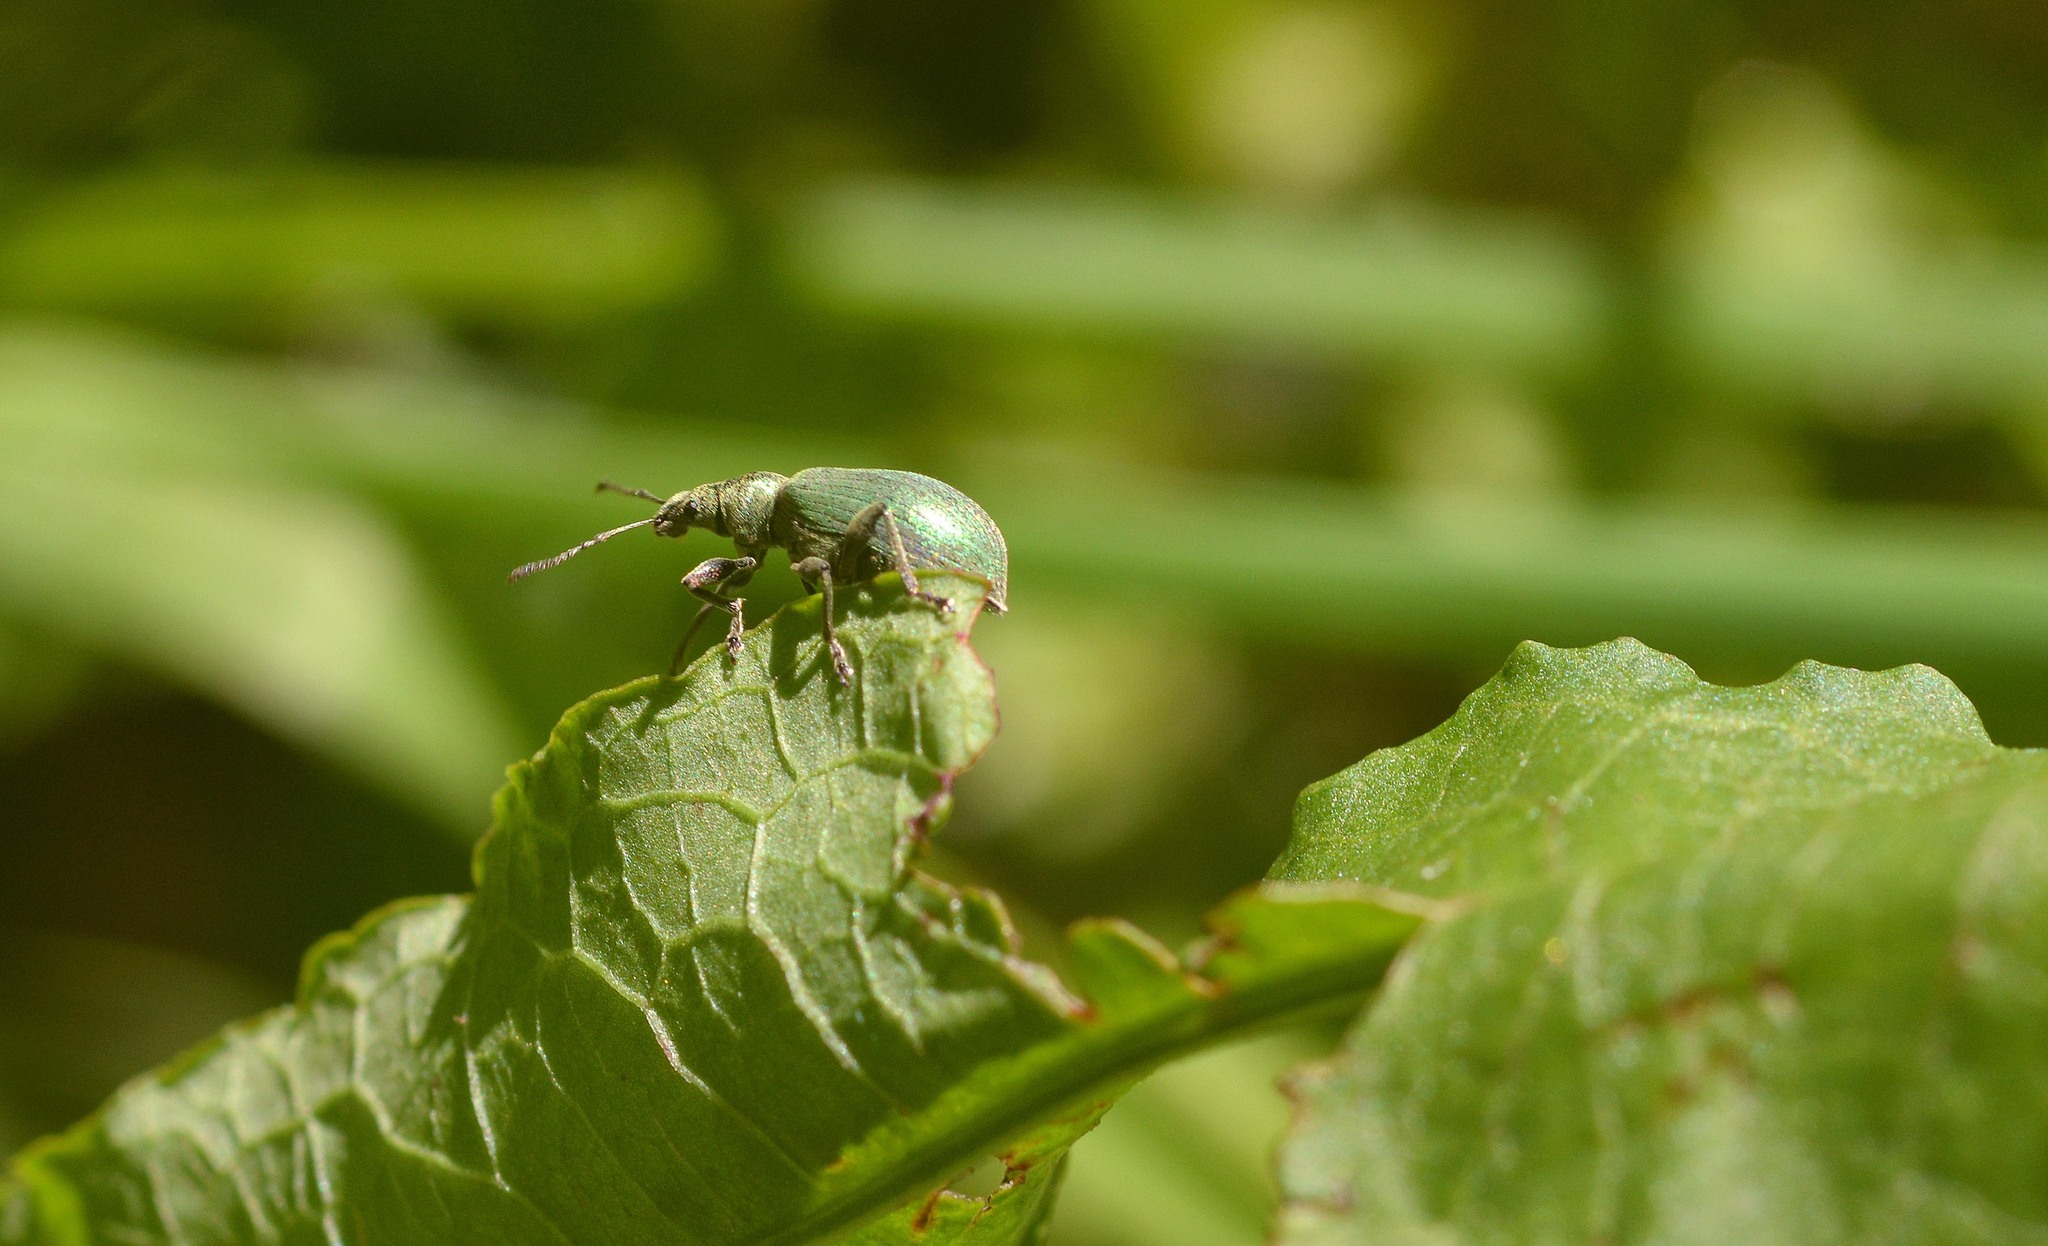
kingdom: Animalia
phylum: Arthropoda
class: Insecta
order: Coleoptera
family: Curculionidae
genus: Phyllobius
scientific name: Phyllobius pomaceus
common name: Green nettle weevil
